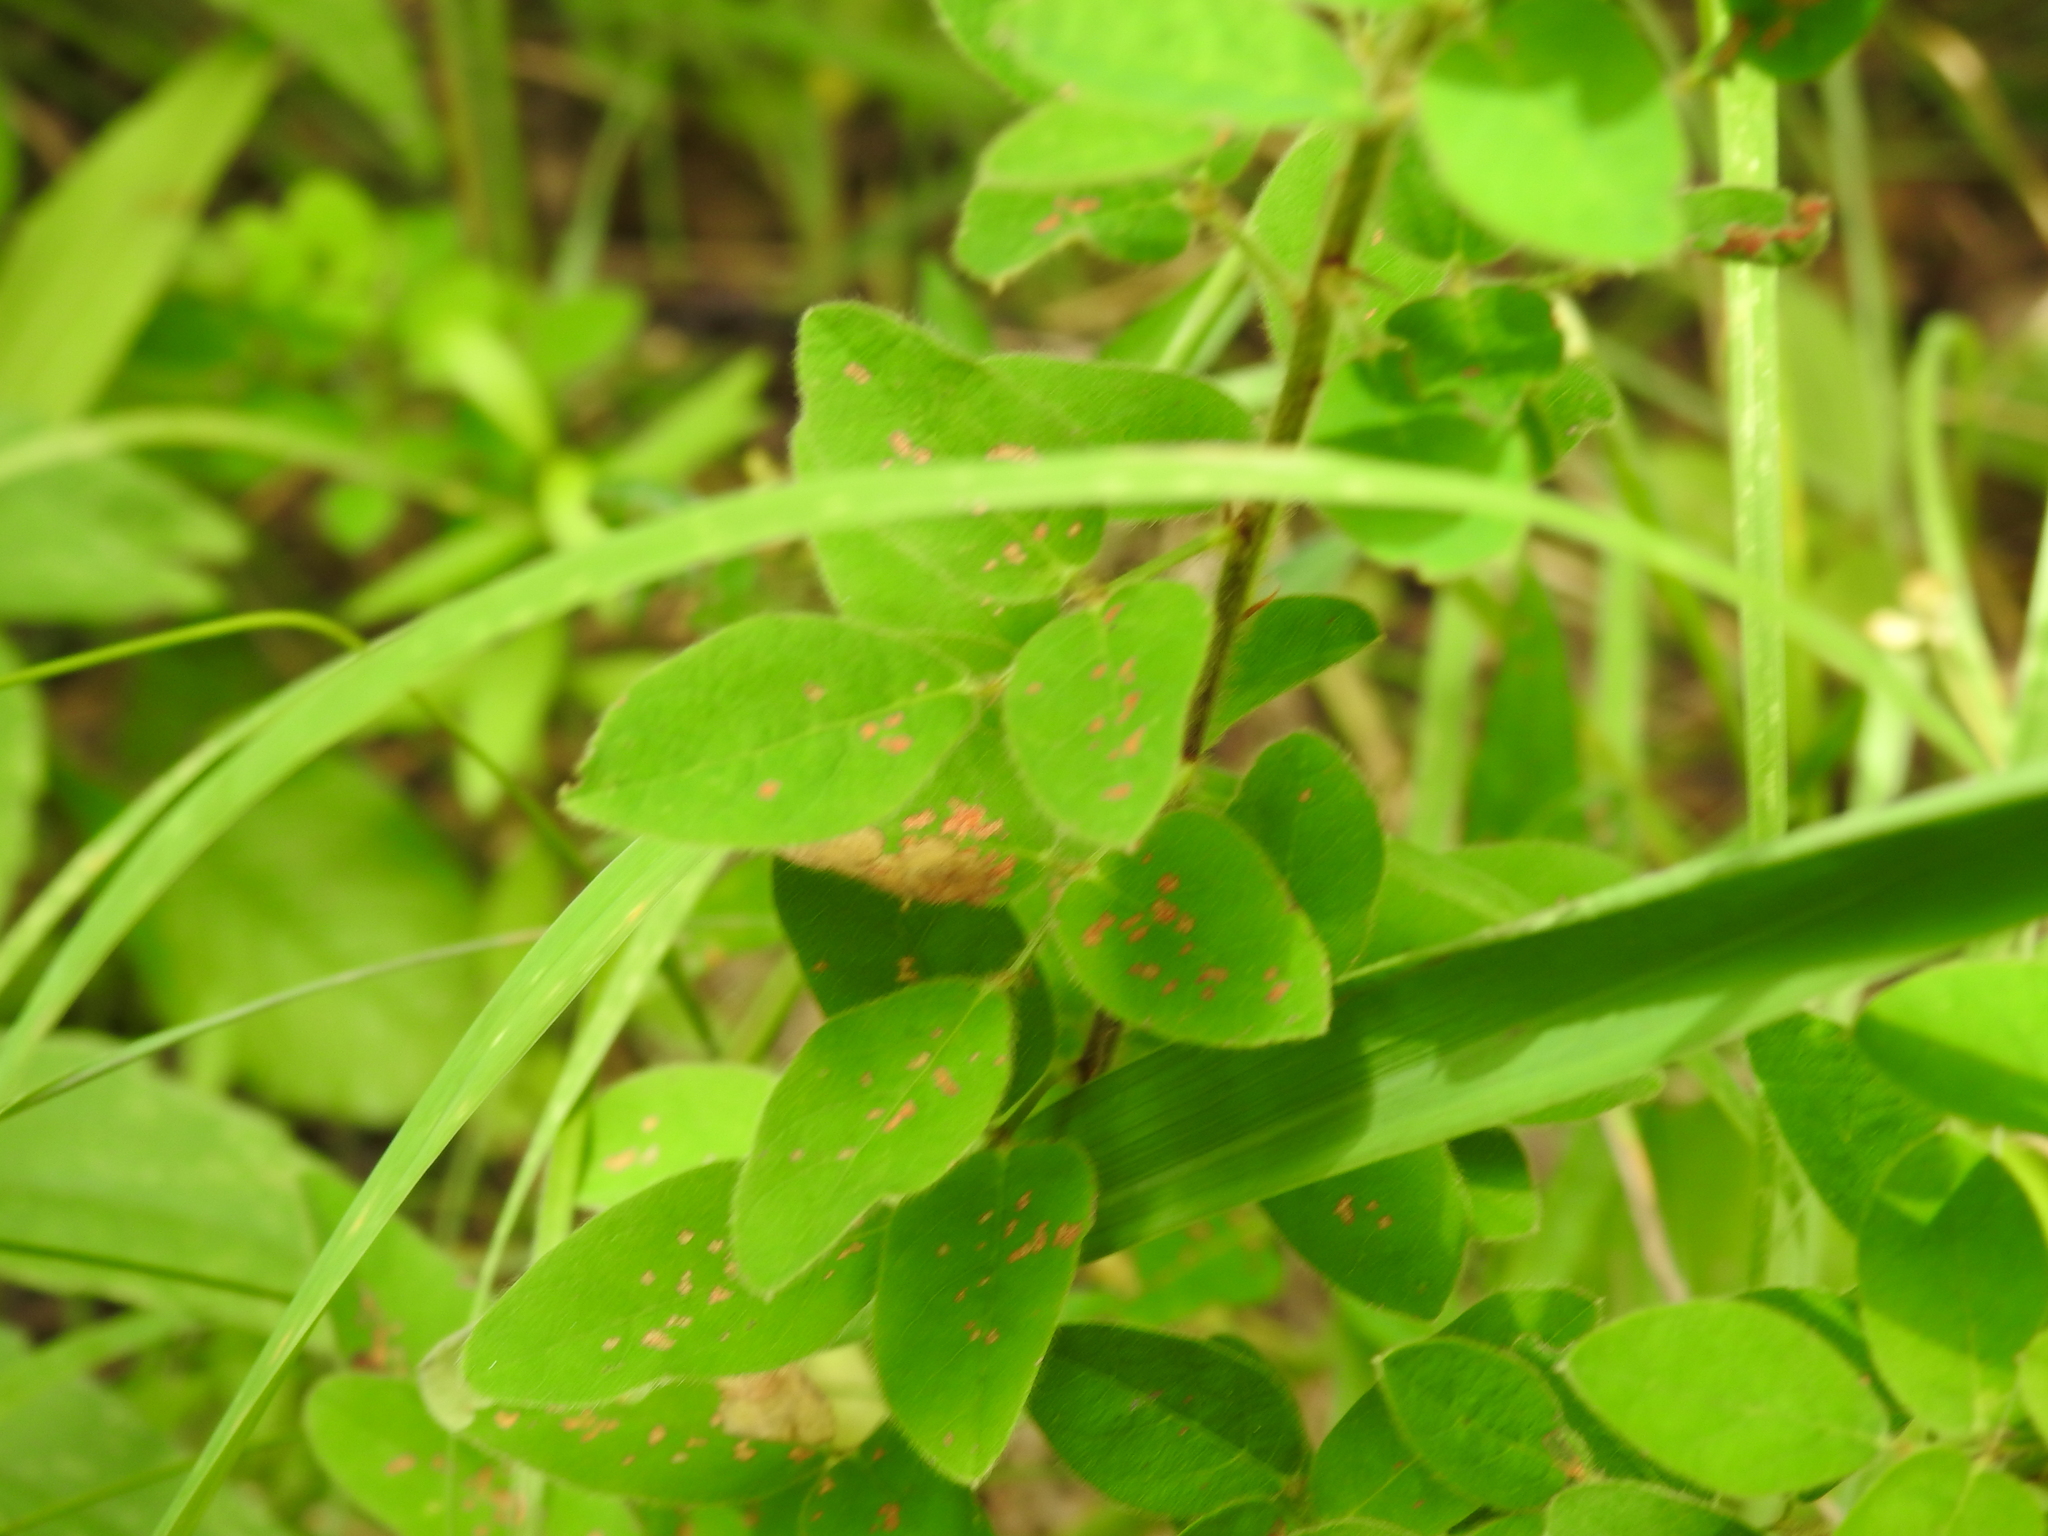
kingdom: Plantae
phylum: Tracheophyta
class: Magnoliopsida
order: Fabales
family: Fabaceae
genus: Desmodium
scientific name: Desmodium ciliare
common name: Hairy small-leaf ticktrefoil
